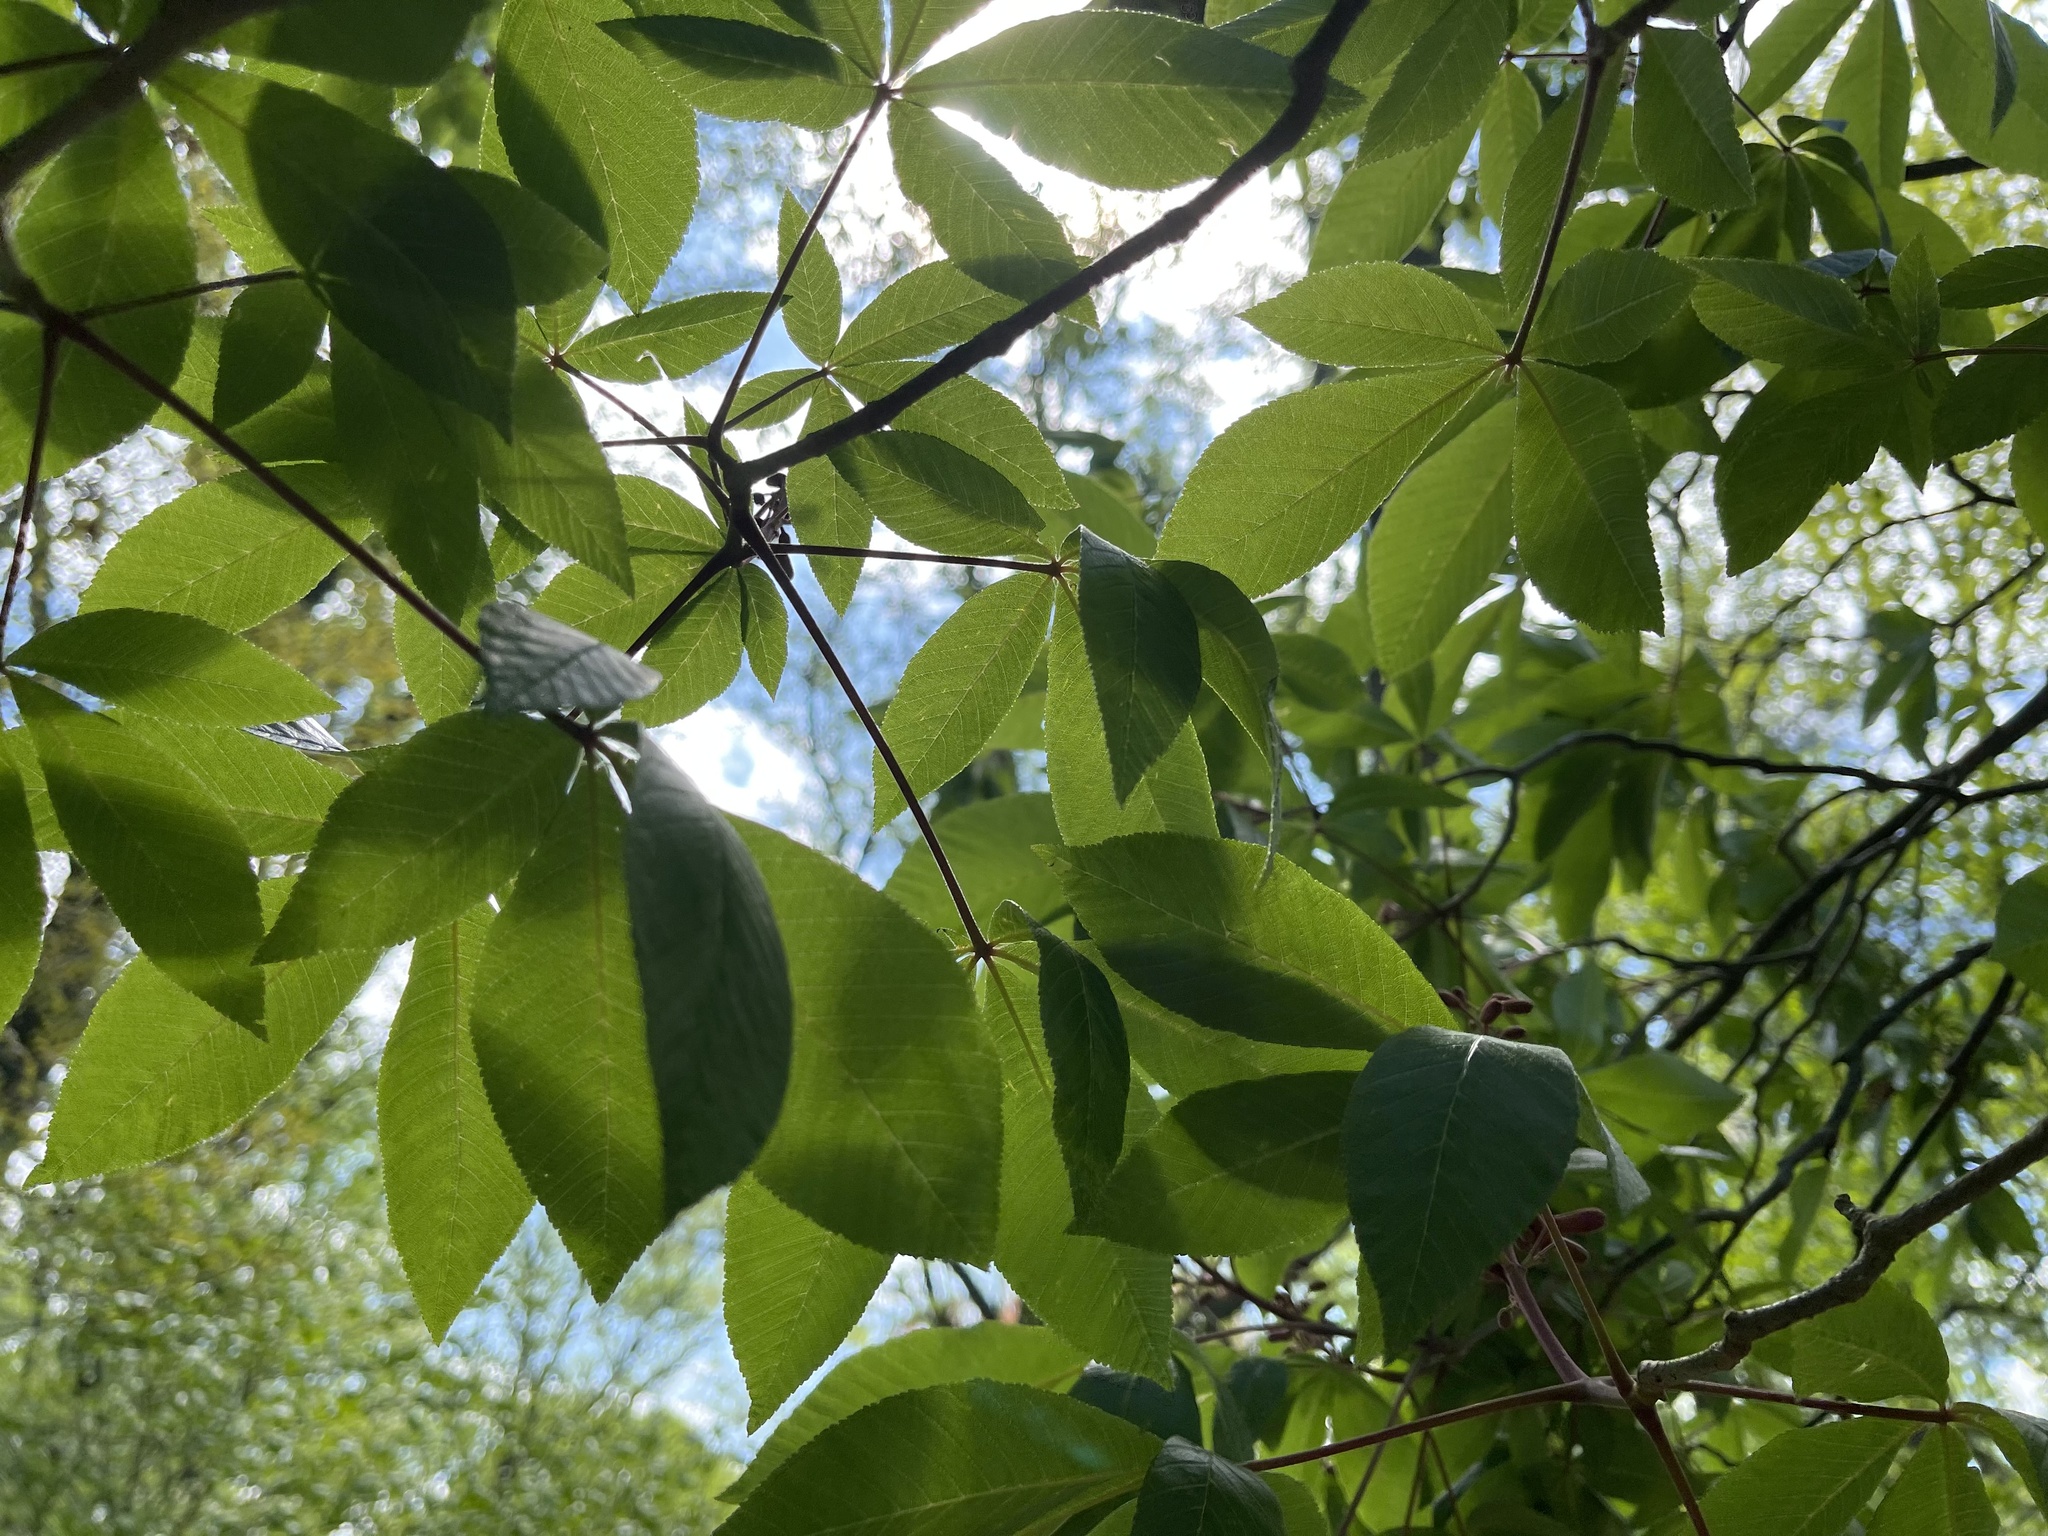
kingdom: Plantae
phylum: Tracheophyta
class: Magnoliopsida
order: Sapindales
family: Sapindaceae
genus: Aesculus
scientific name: Aesculus pavia
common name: Red buckeye
